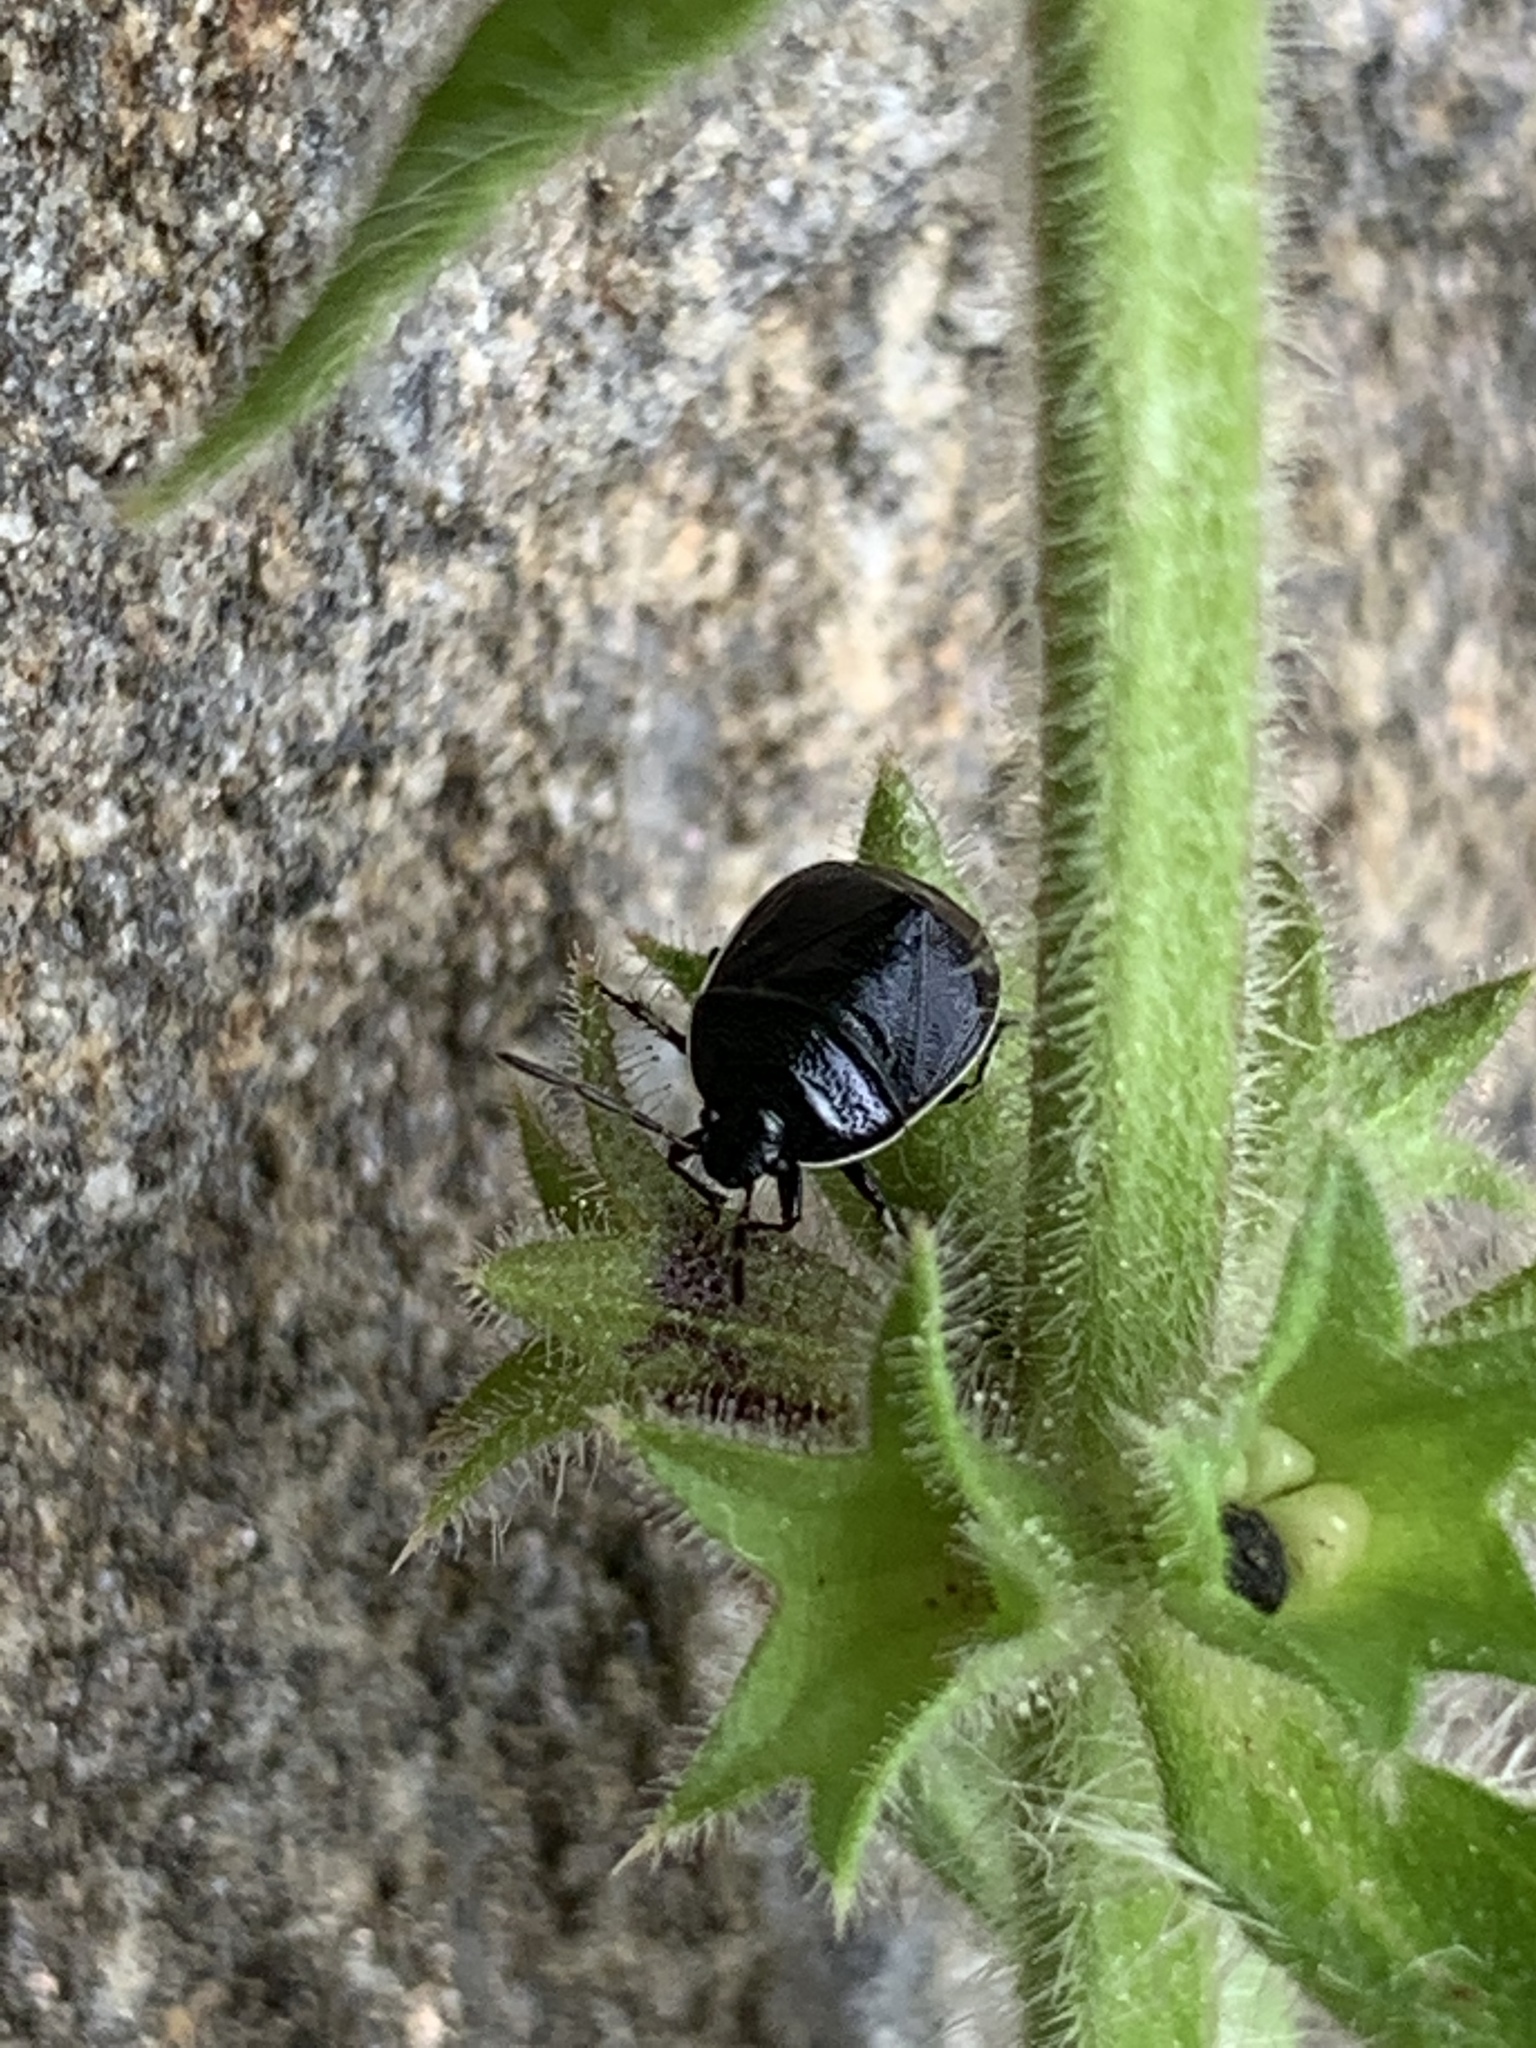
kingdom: Animalia
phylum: Arthropoda
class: Insecta
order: Hemiptera
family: Cydnidae
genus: Sehirus
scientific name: Sehirus cinctus
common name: White-margined burrower bug
